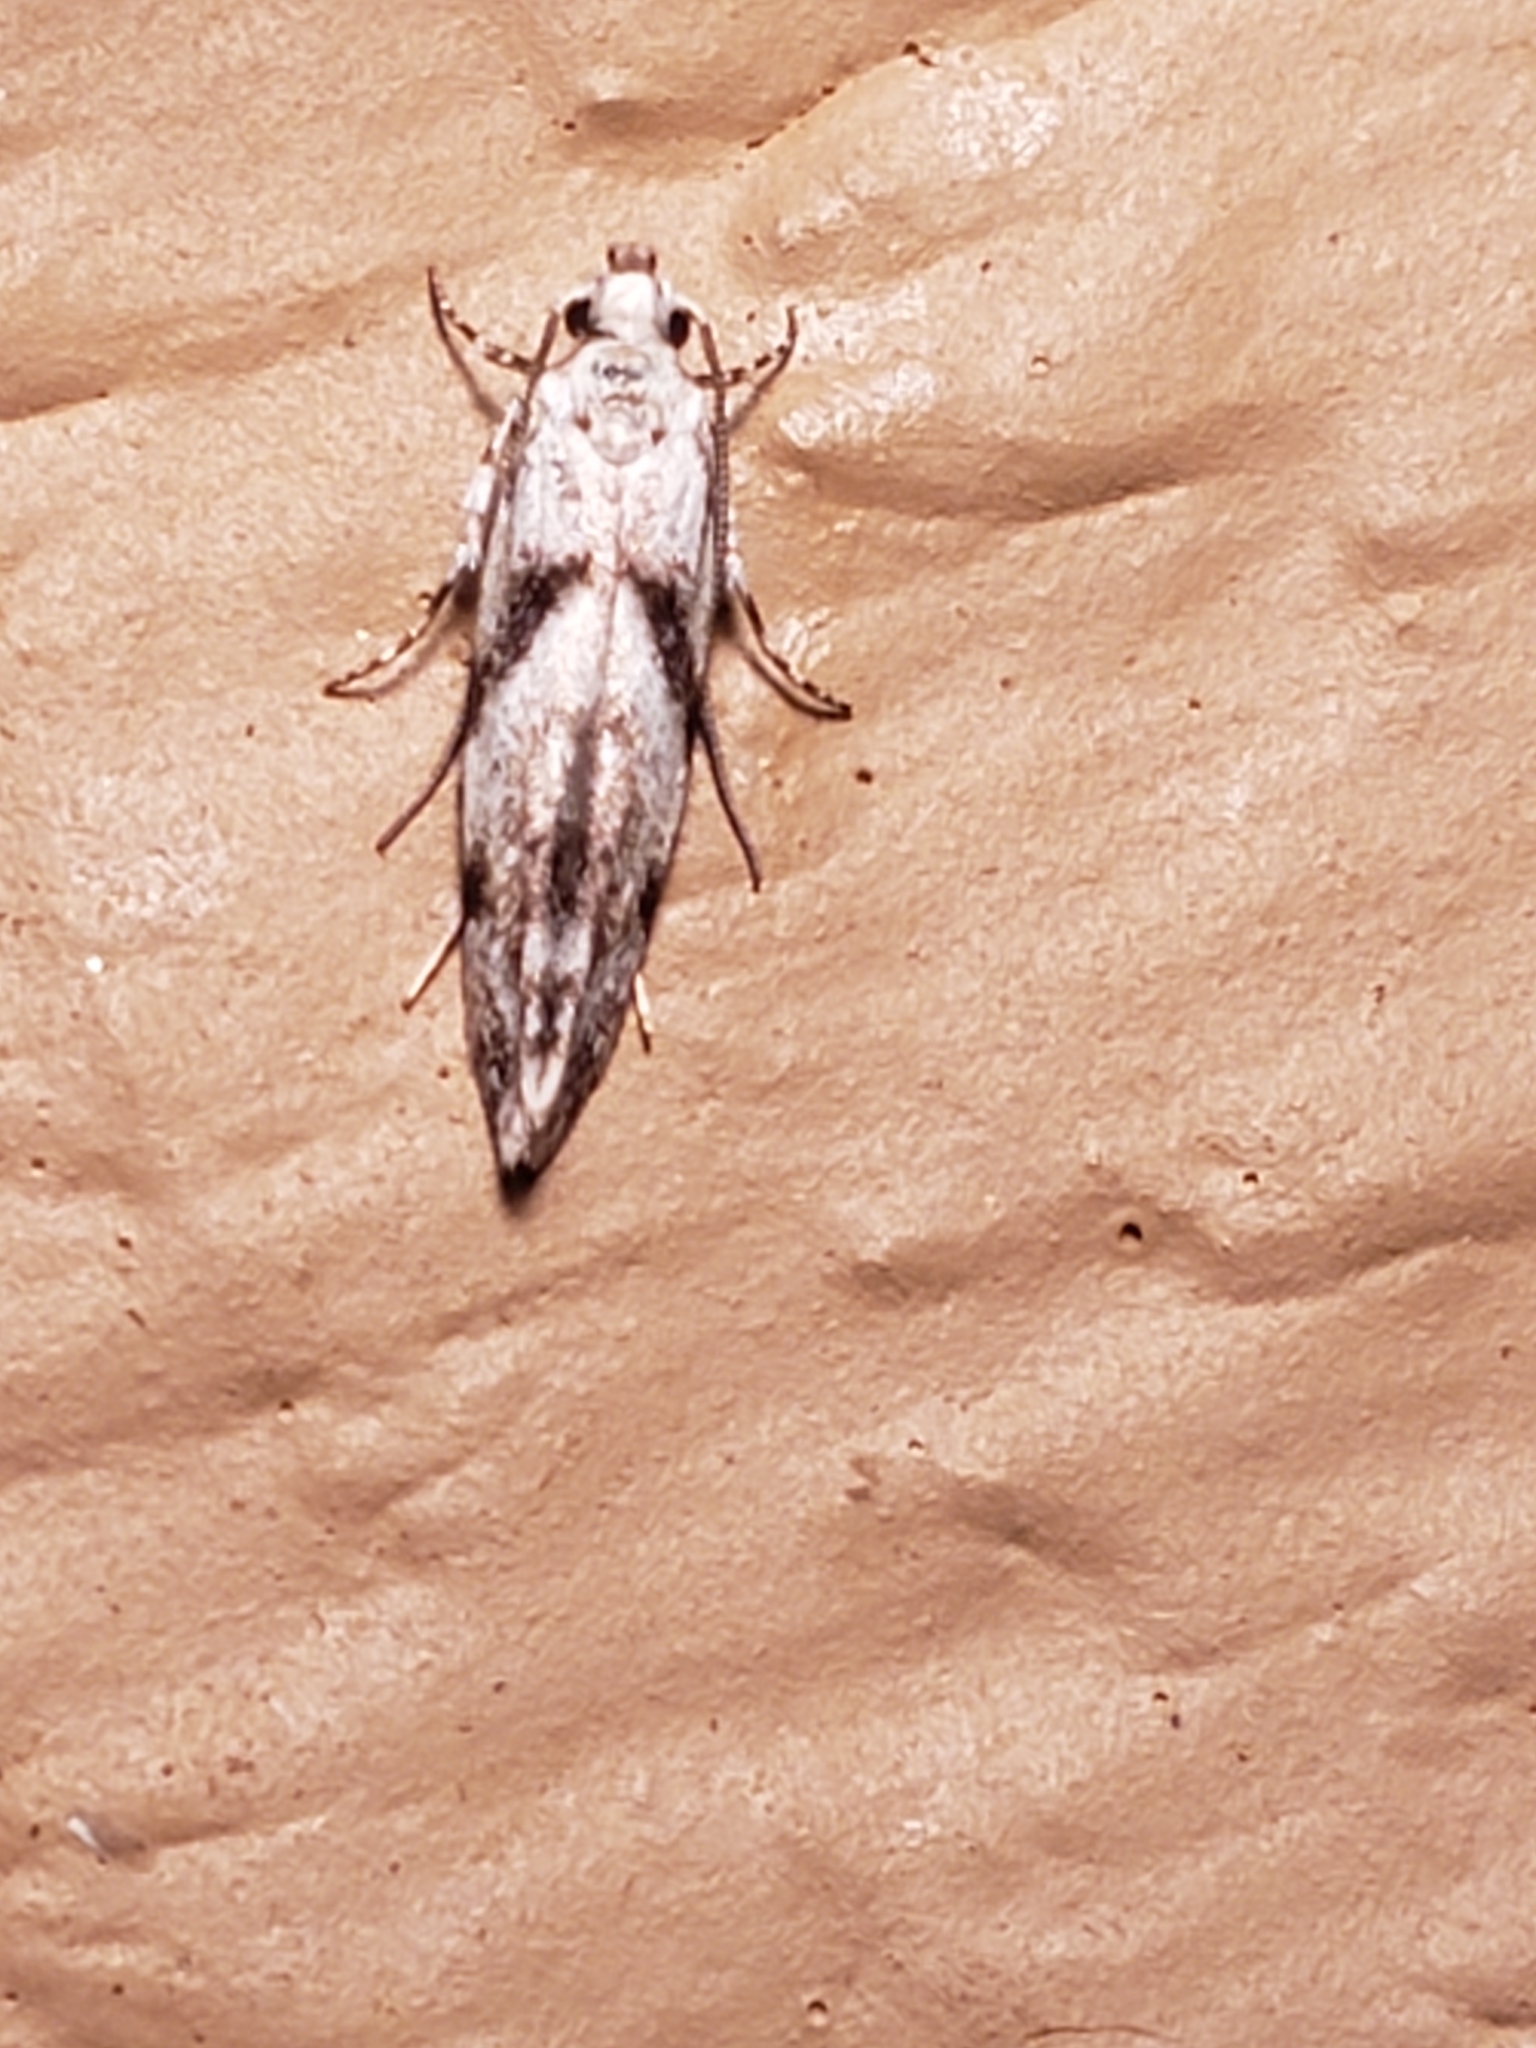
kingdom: Animalia
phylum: Arthropoda
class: Insecta
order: Lepidoptera
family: Gelechiidae
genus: Arogalea
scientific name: Arogalea cristifasciella
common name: White stripe-backed moth
